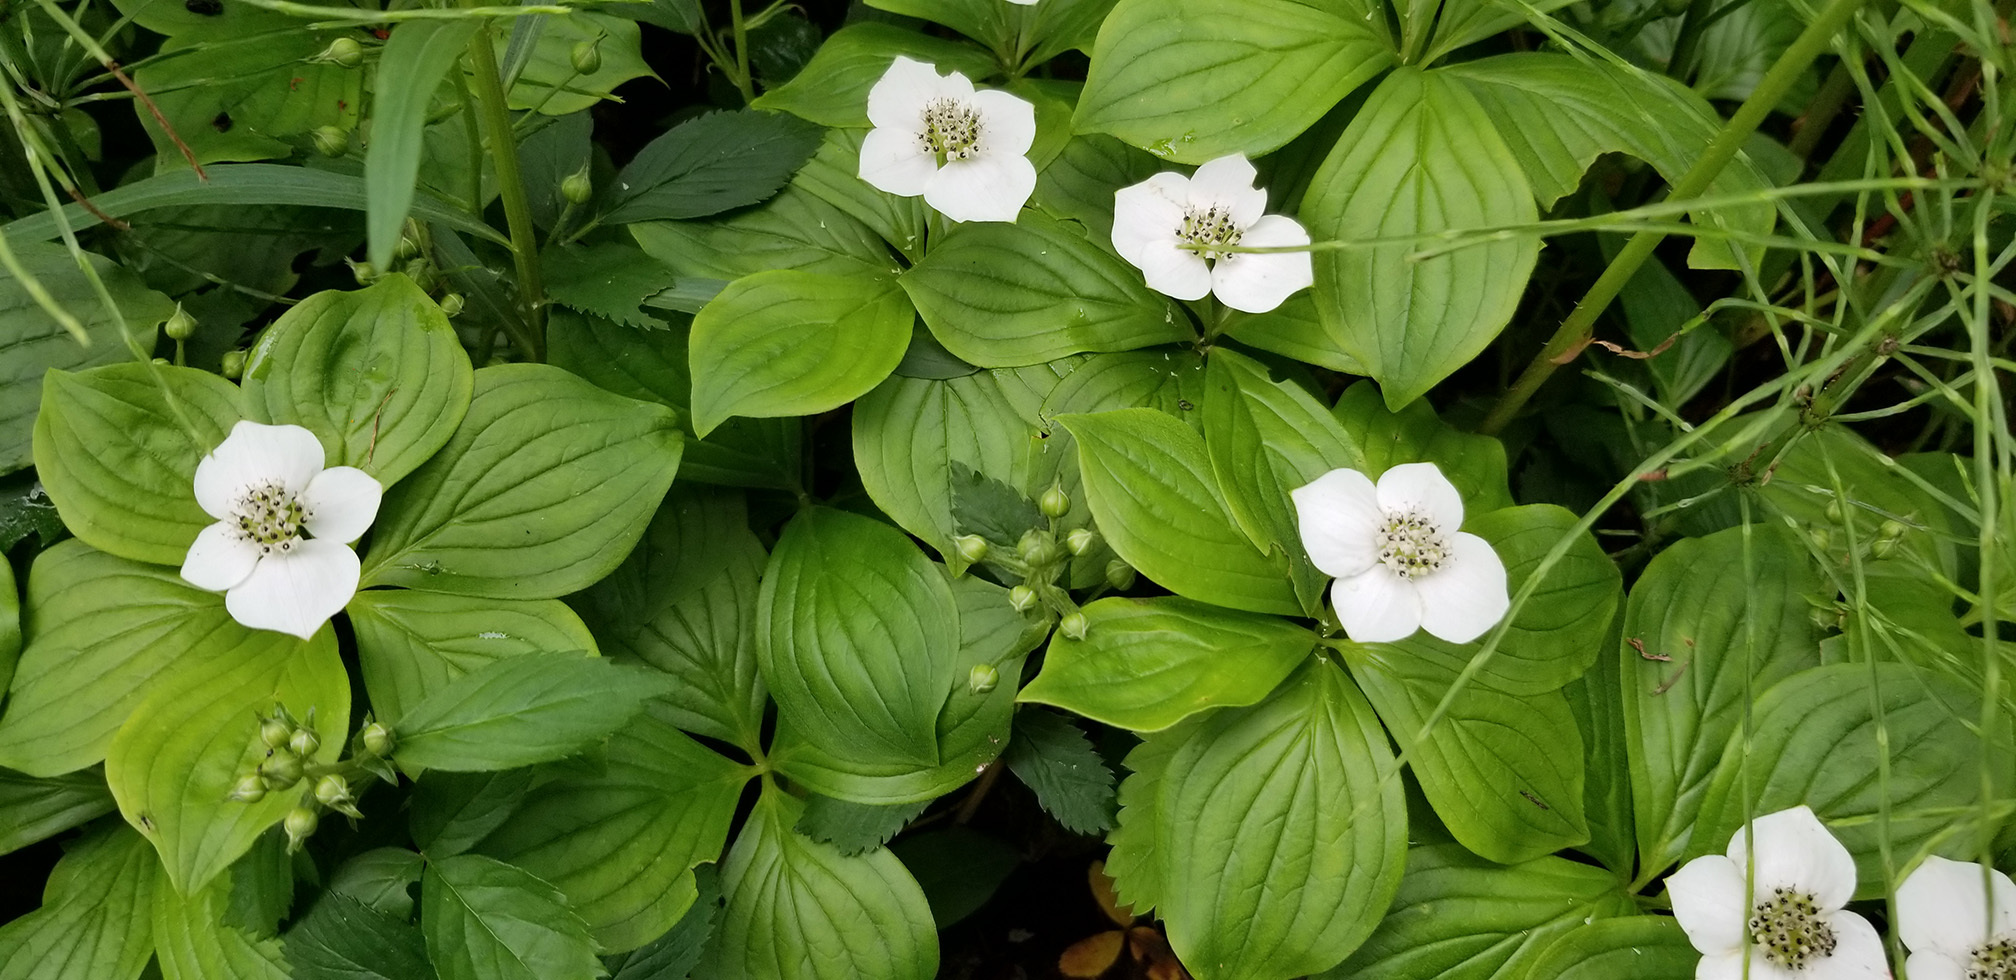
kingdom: Plantae
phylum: Tracheophyta
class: Magnoliopsida
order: Cornales
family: Cornaceae
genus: Cornus
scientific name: Cornus canadensis
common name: Creeping dogwood
